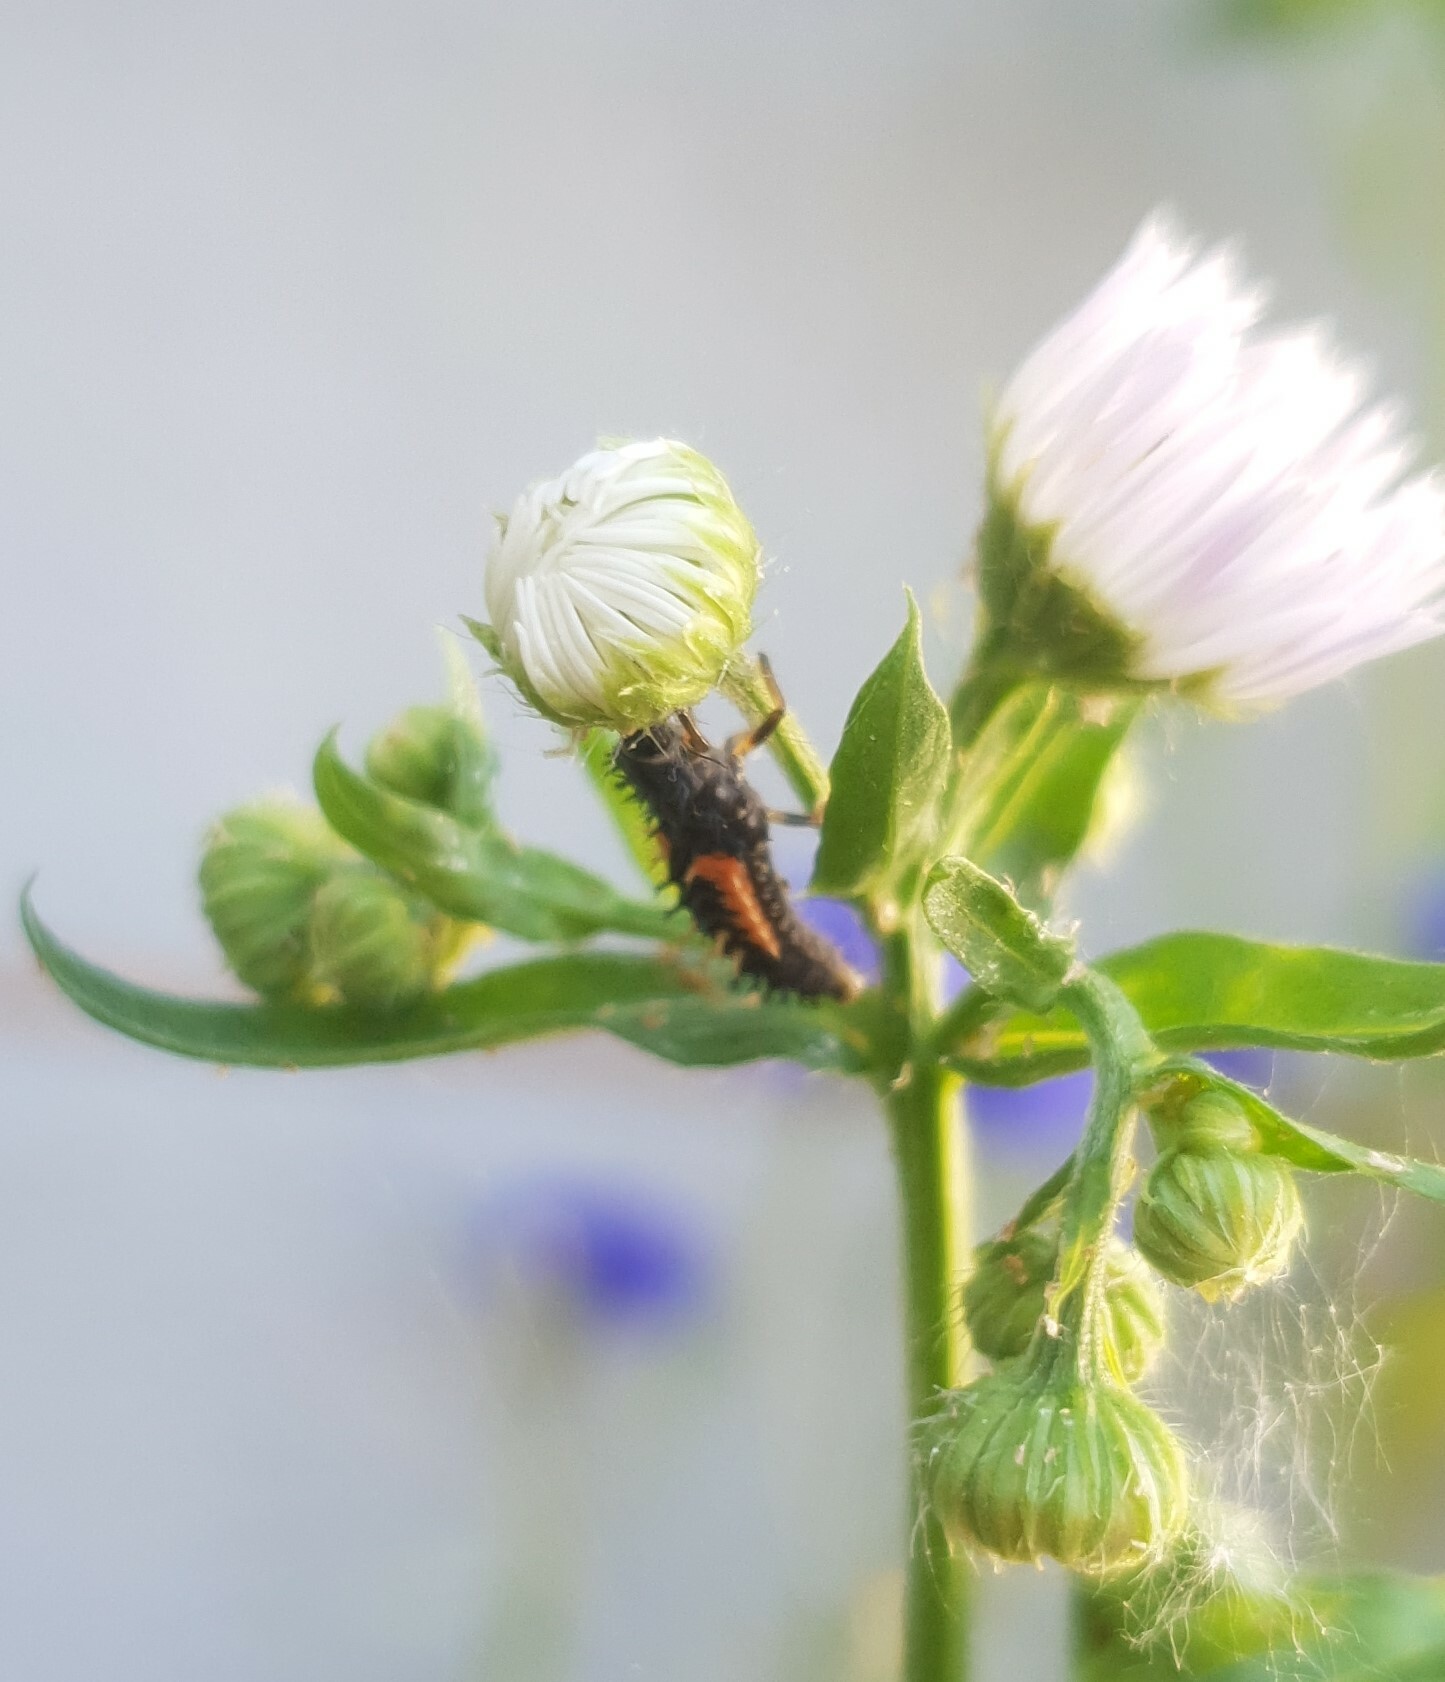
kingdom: Animalia
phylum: Arthropoda
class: Insecta
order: Coleoptera
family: Coccinellidae
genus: Harmonia
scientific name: Harmonia axyridis
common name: Harlequin ladybird
